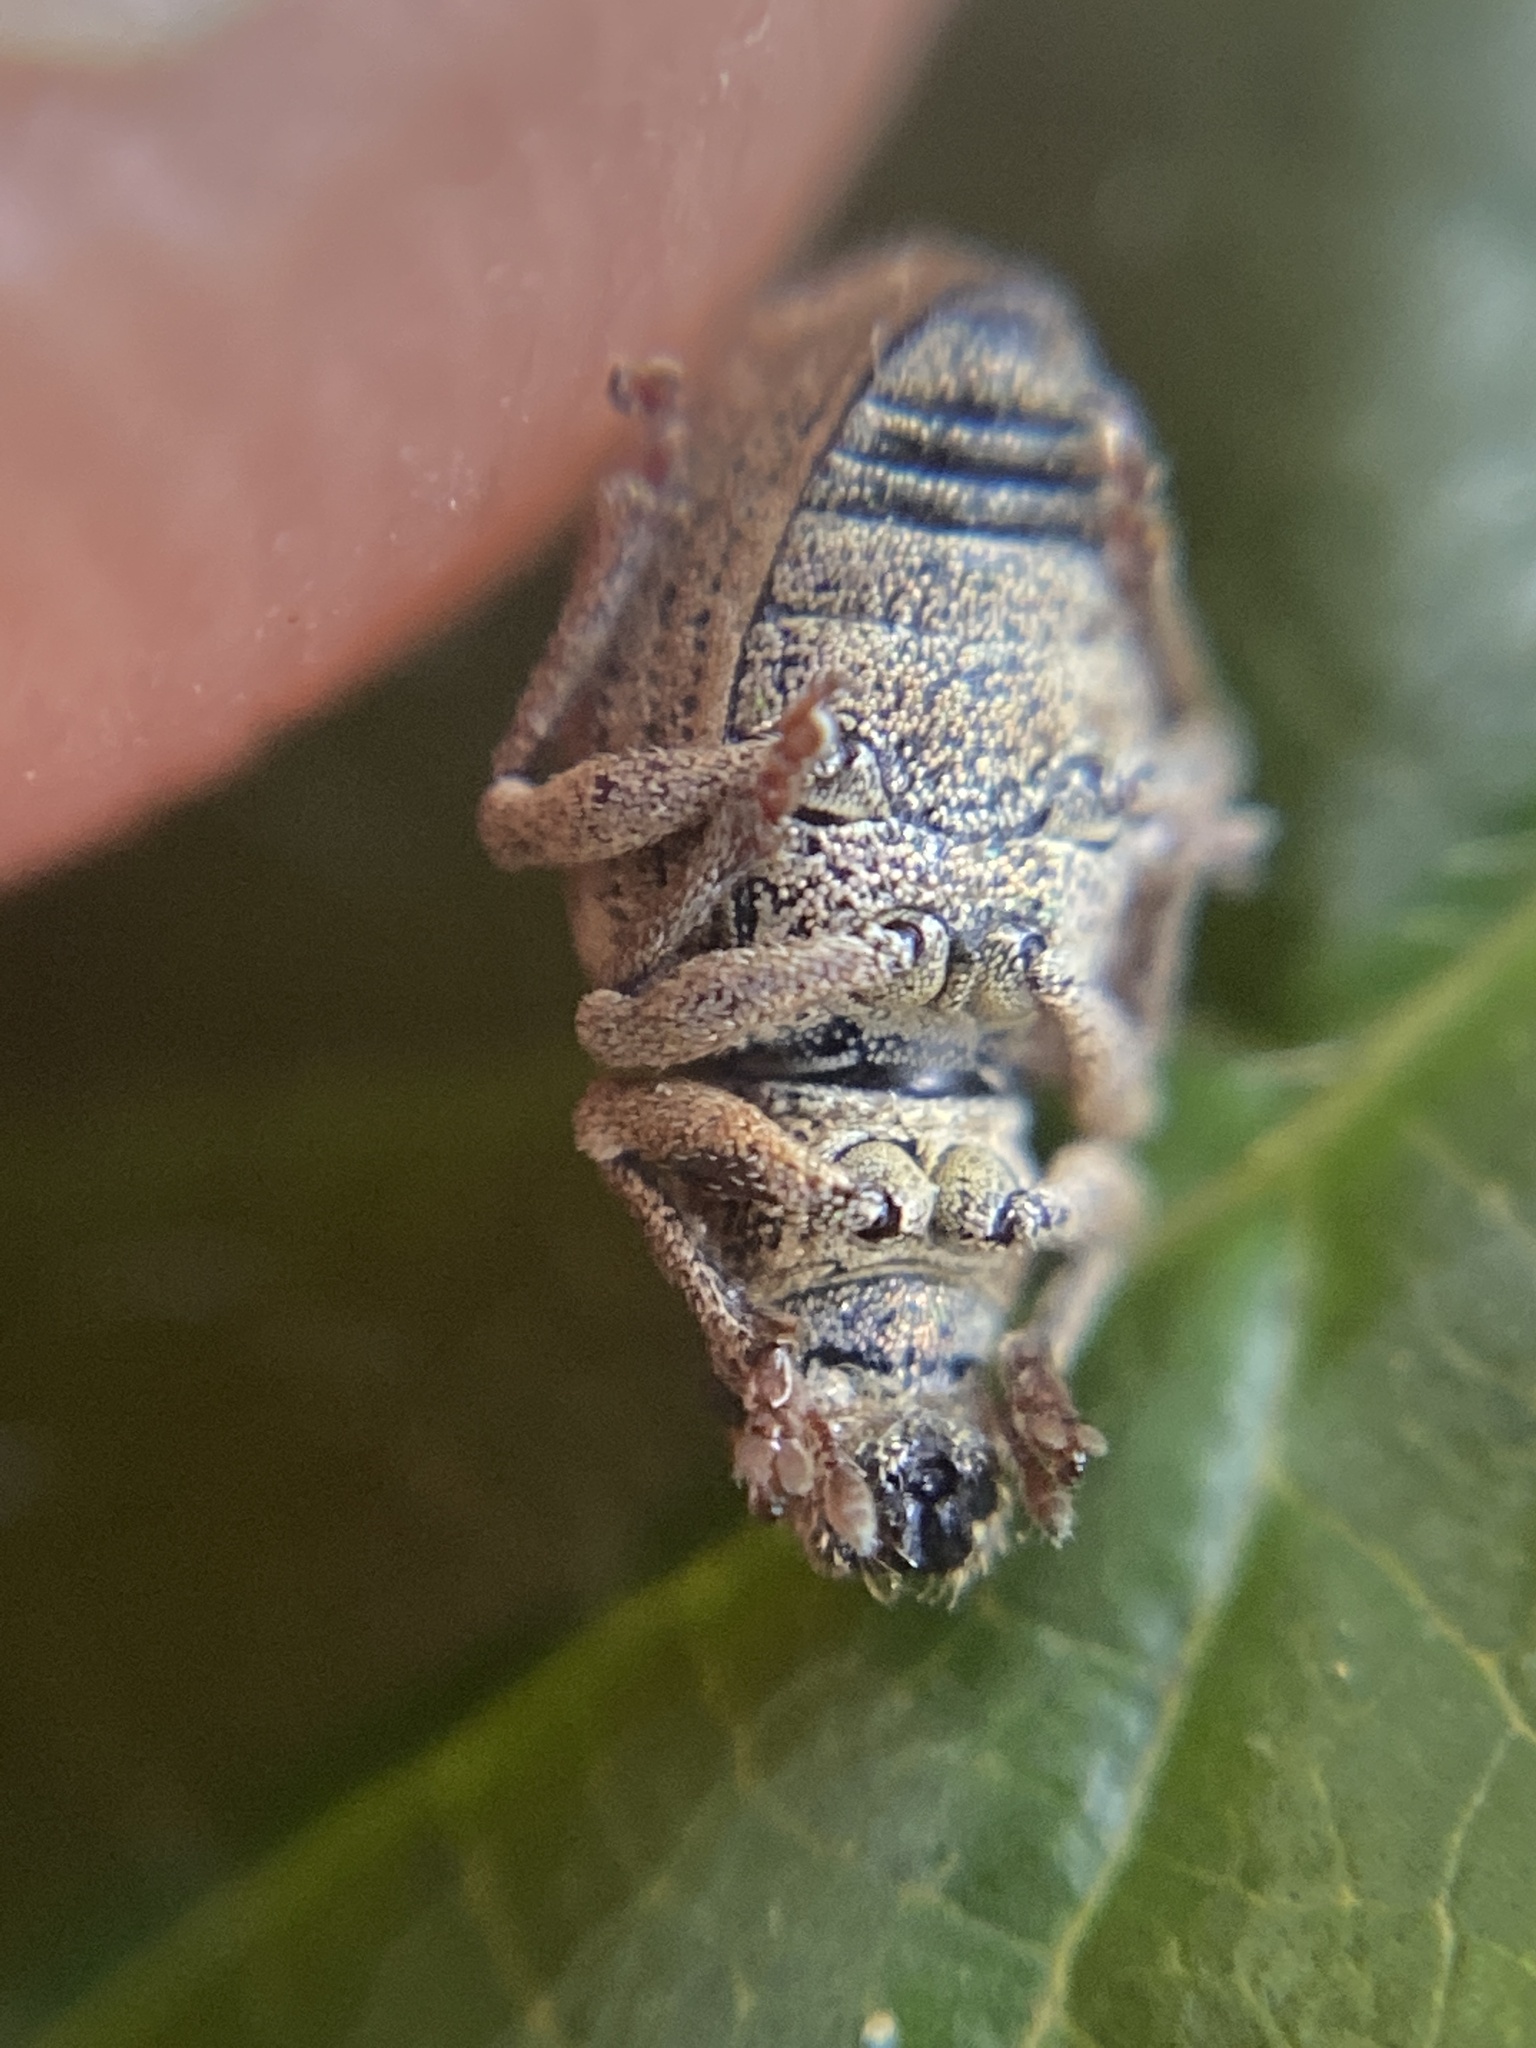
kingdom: Animalia
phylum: Arthropoda
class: Insecta
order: Coleoptera
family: Curculionidae
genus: Strophosoma
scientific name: Strophosoma melanogrammum
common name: Weevil
